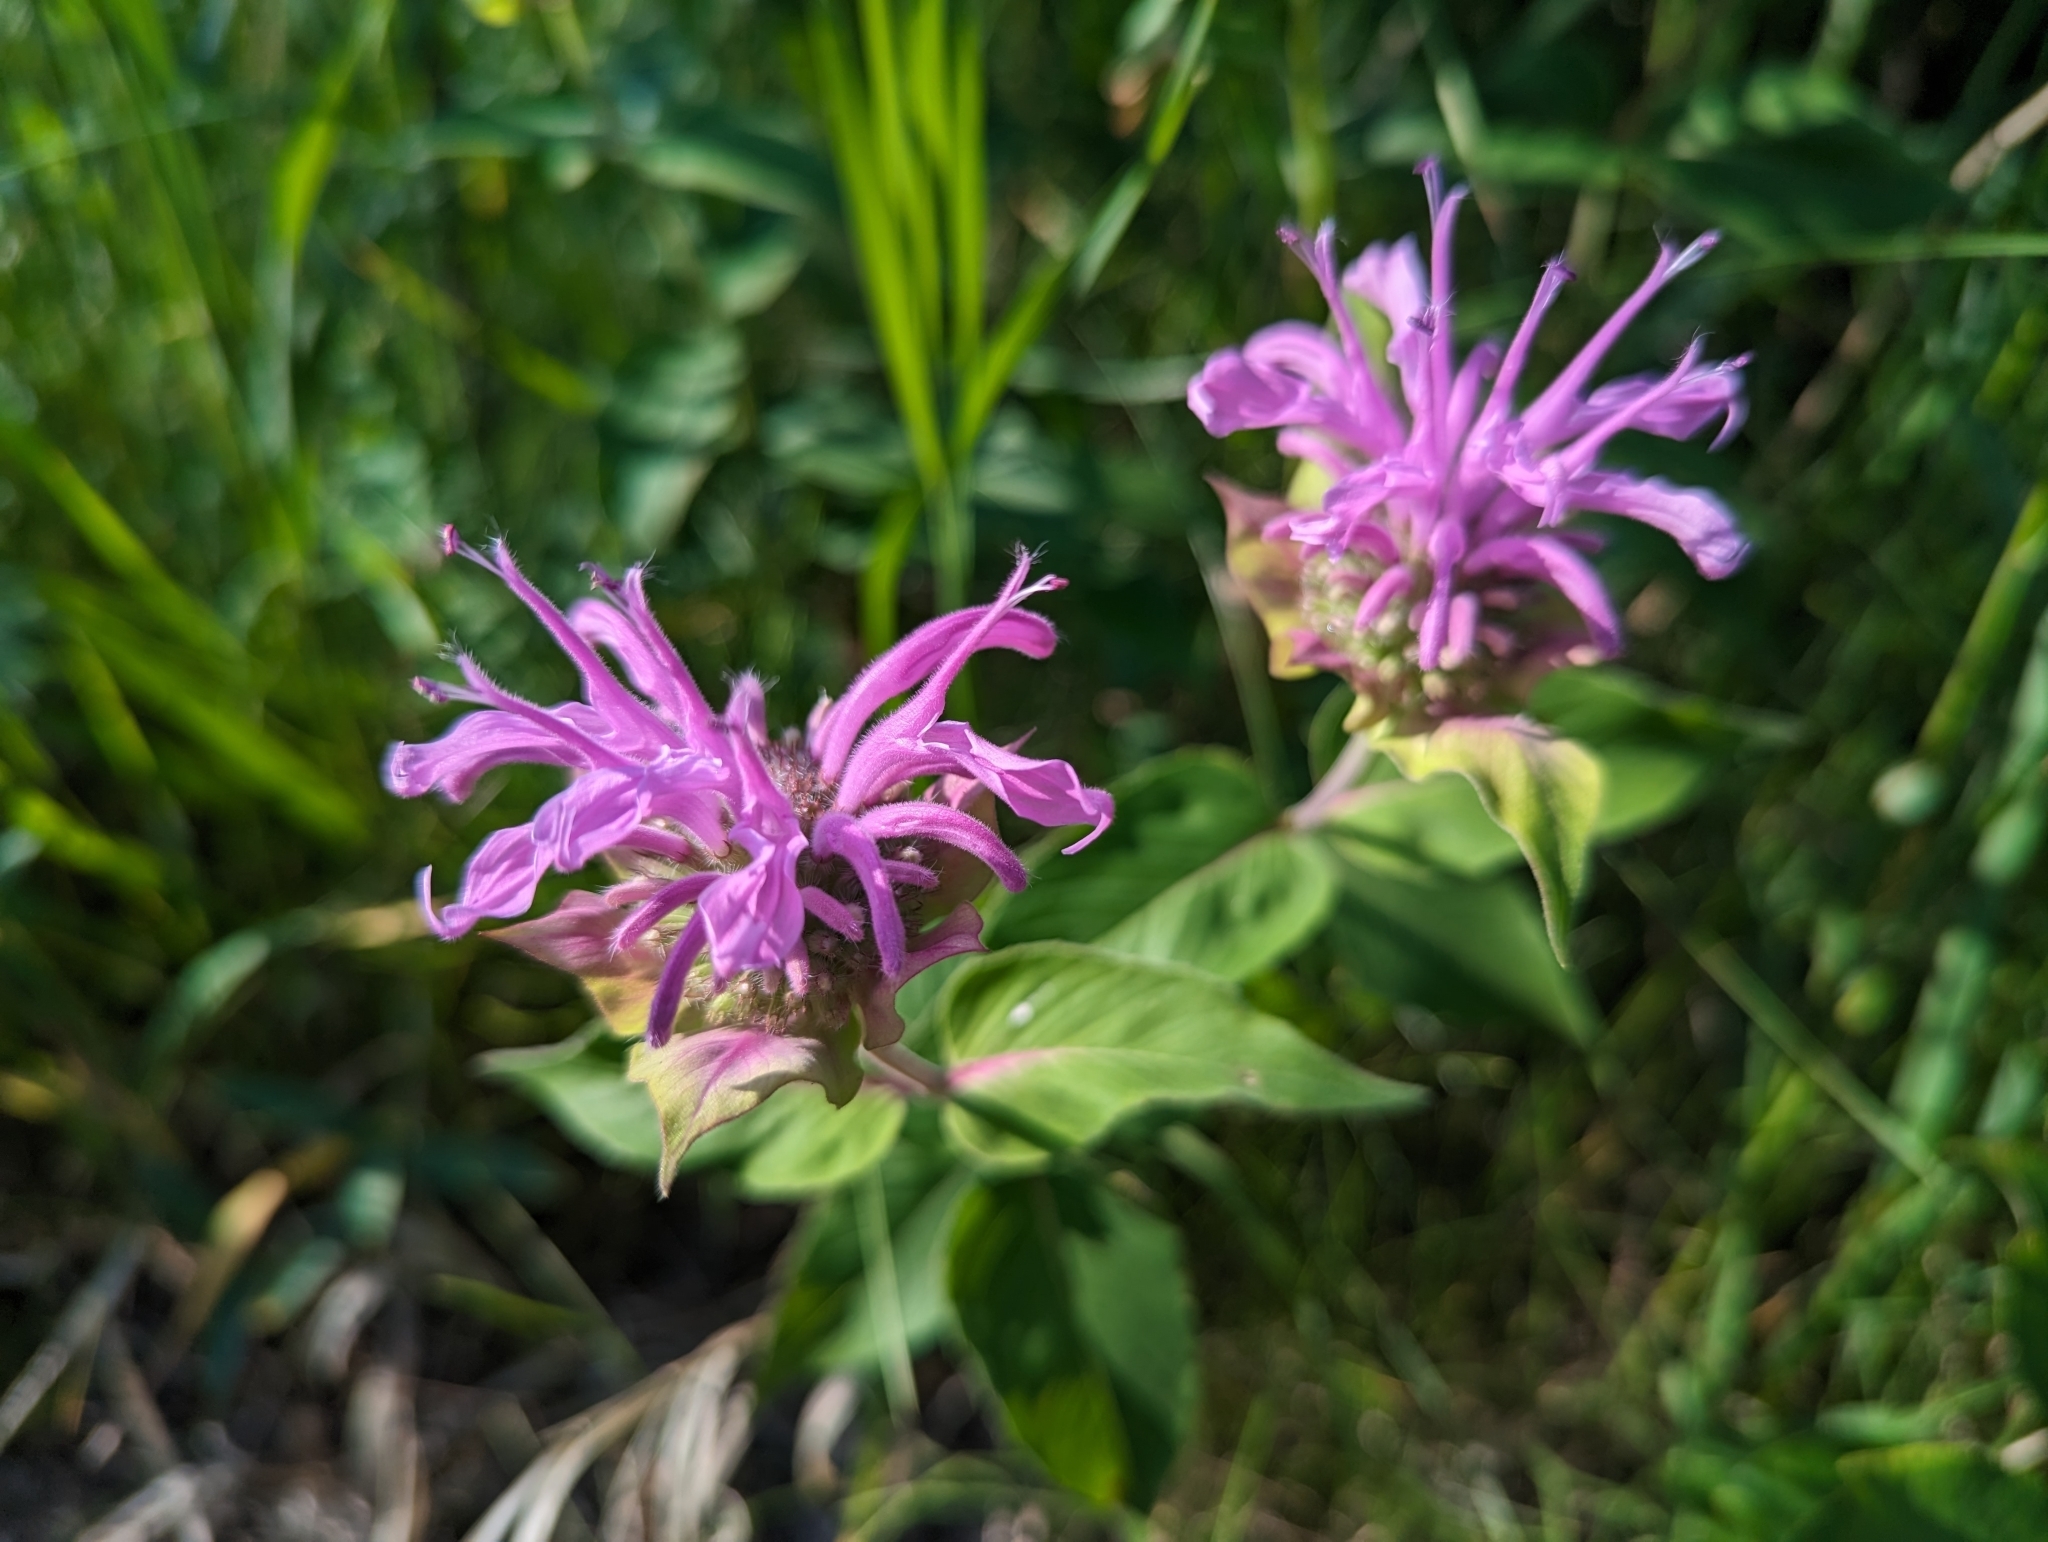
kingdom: Plantae
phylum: Tracheophyta
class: Magnoliopsida
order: Lamiales
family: Lamiaceae
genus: Monarda
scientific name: Monarda fistulosa
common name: Purple beebalm
